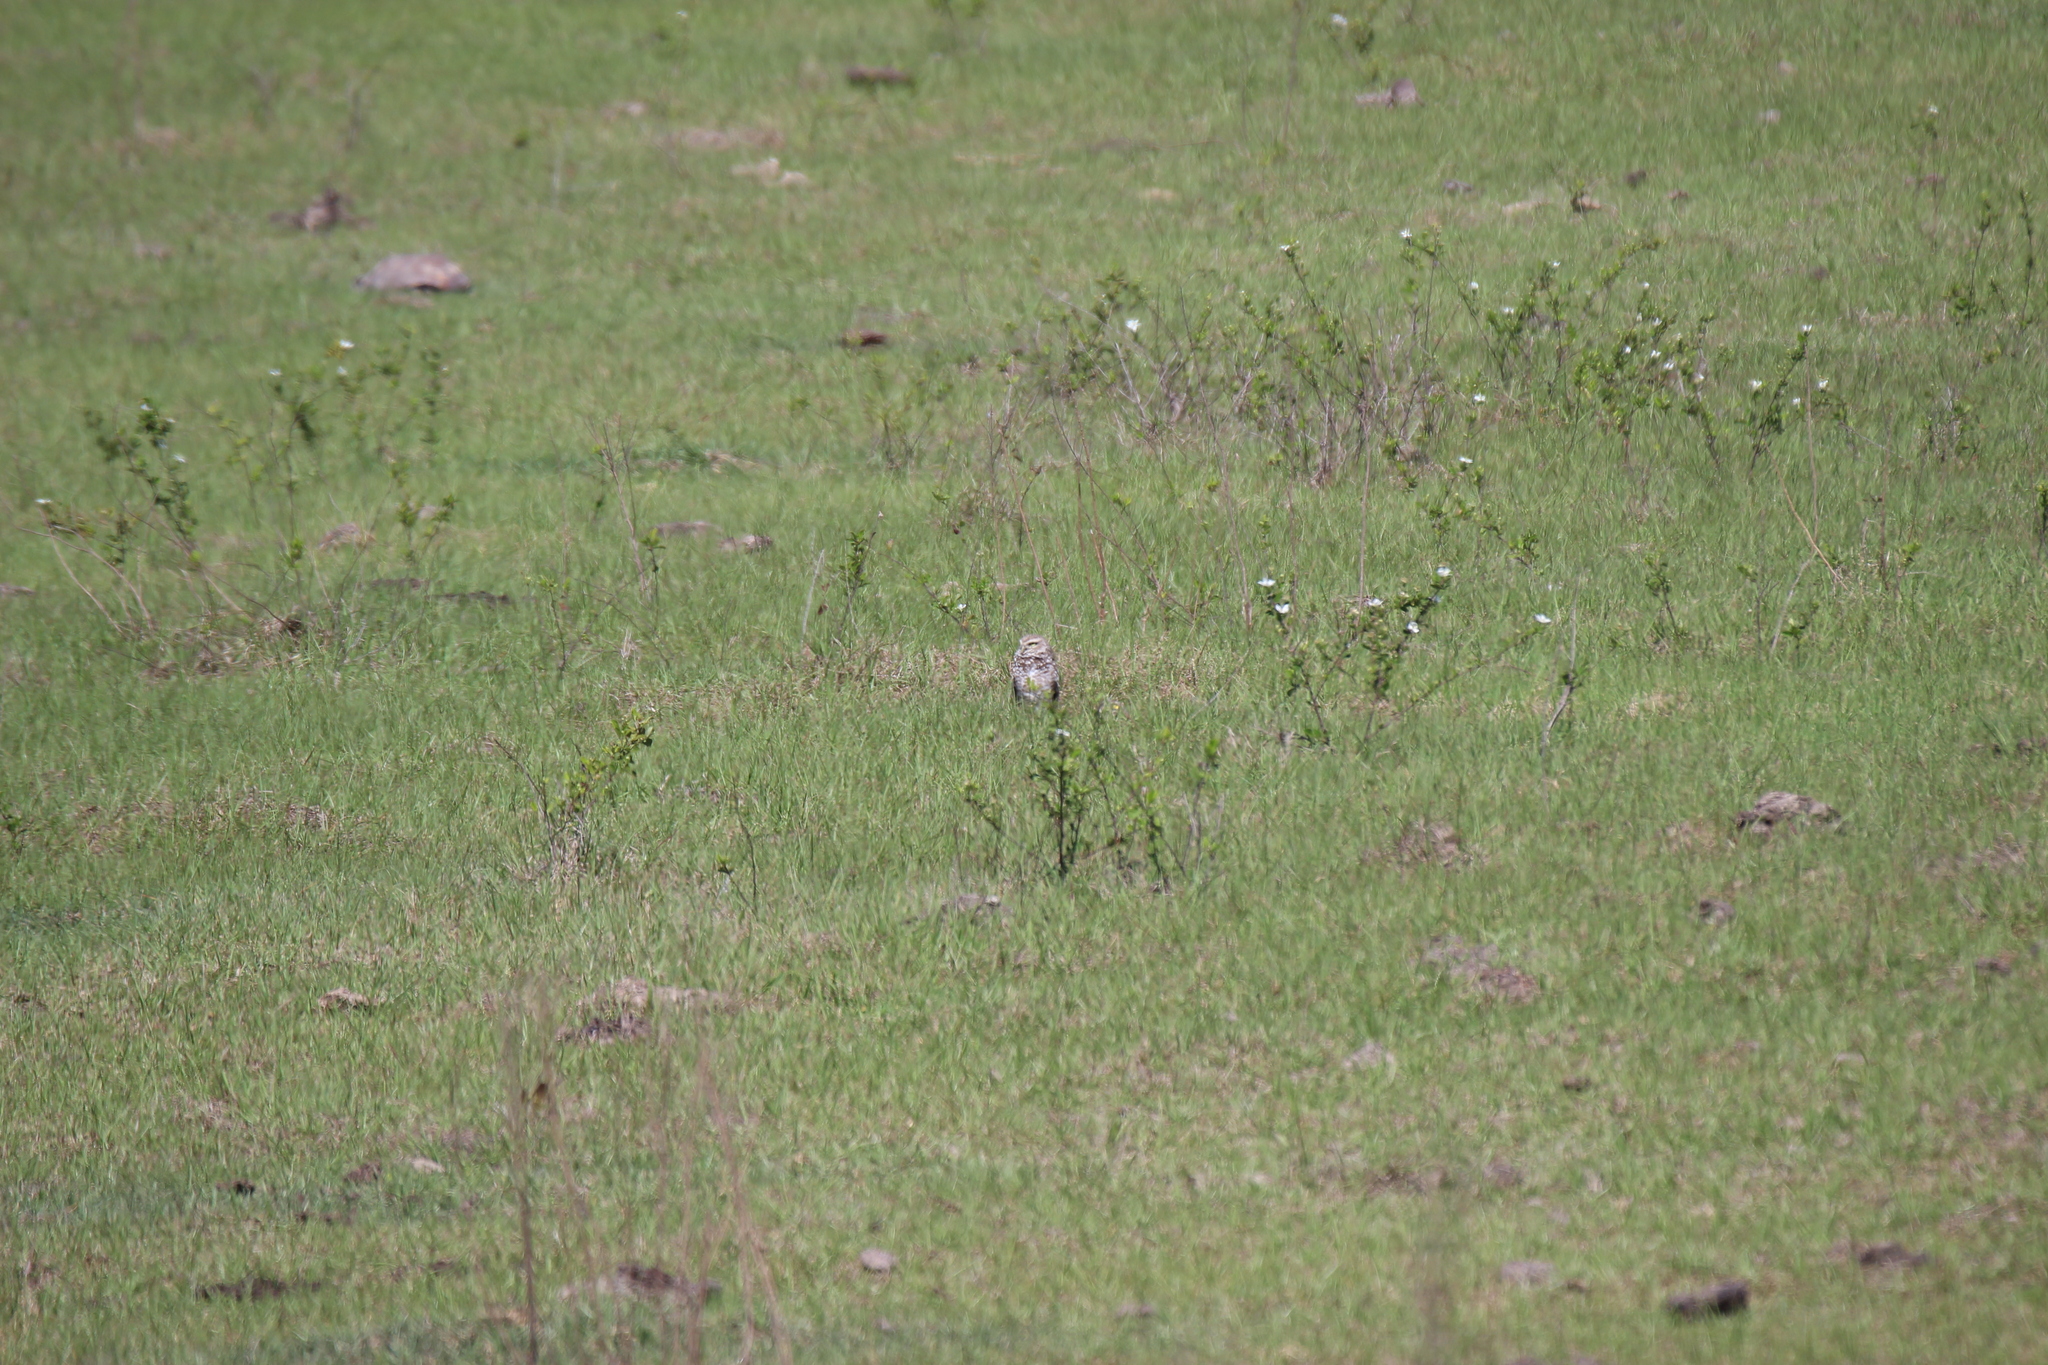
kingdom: Animalia
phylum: Chordata
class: Aves
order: Strigiformes
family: Strigidae
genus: Athene
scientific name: Athene cunicularia
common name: Burrowing owl
